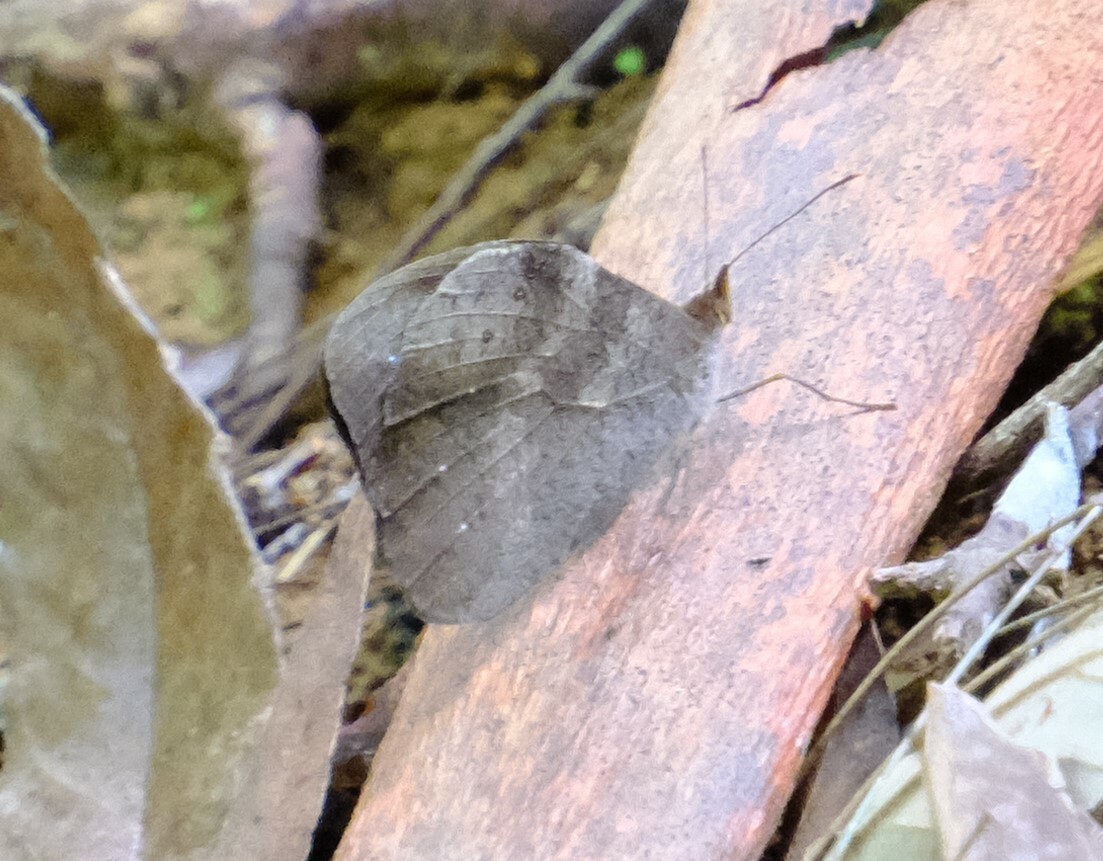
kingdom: Animalia
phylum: Arthropoda
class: Insecta
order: Lepidoptera
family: Nymphalidae
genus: Heteronympha
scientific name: Heteronympha mirifica
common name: Wonder brown
